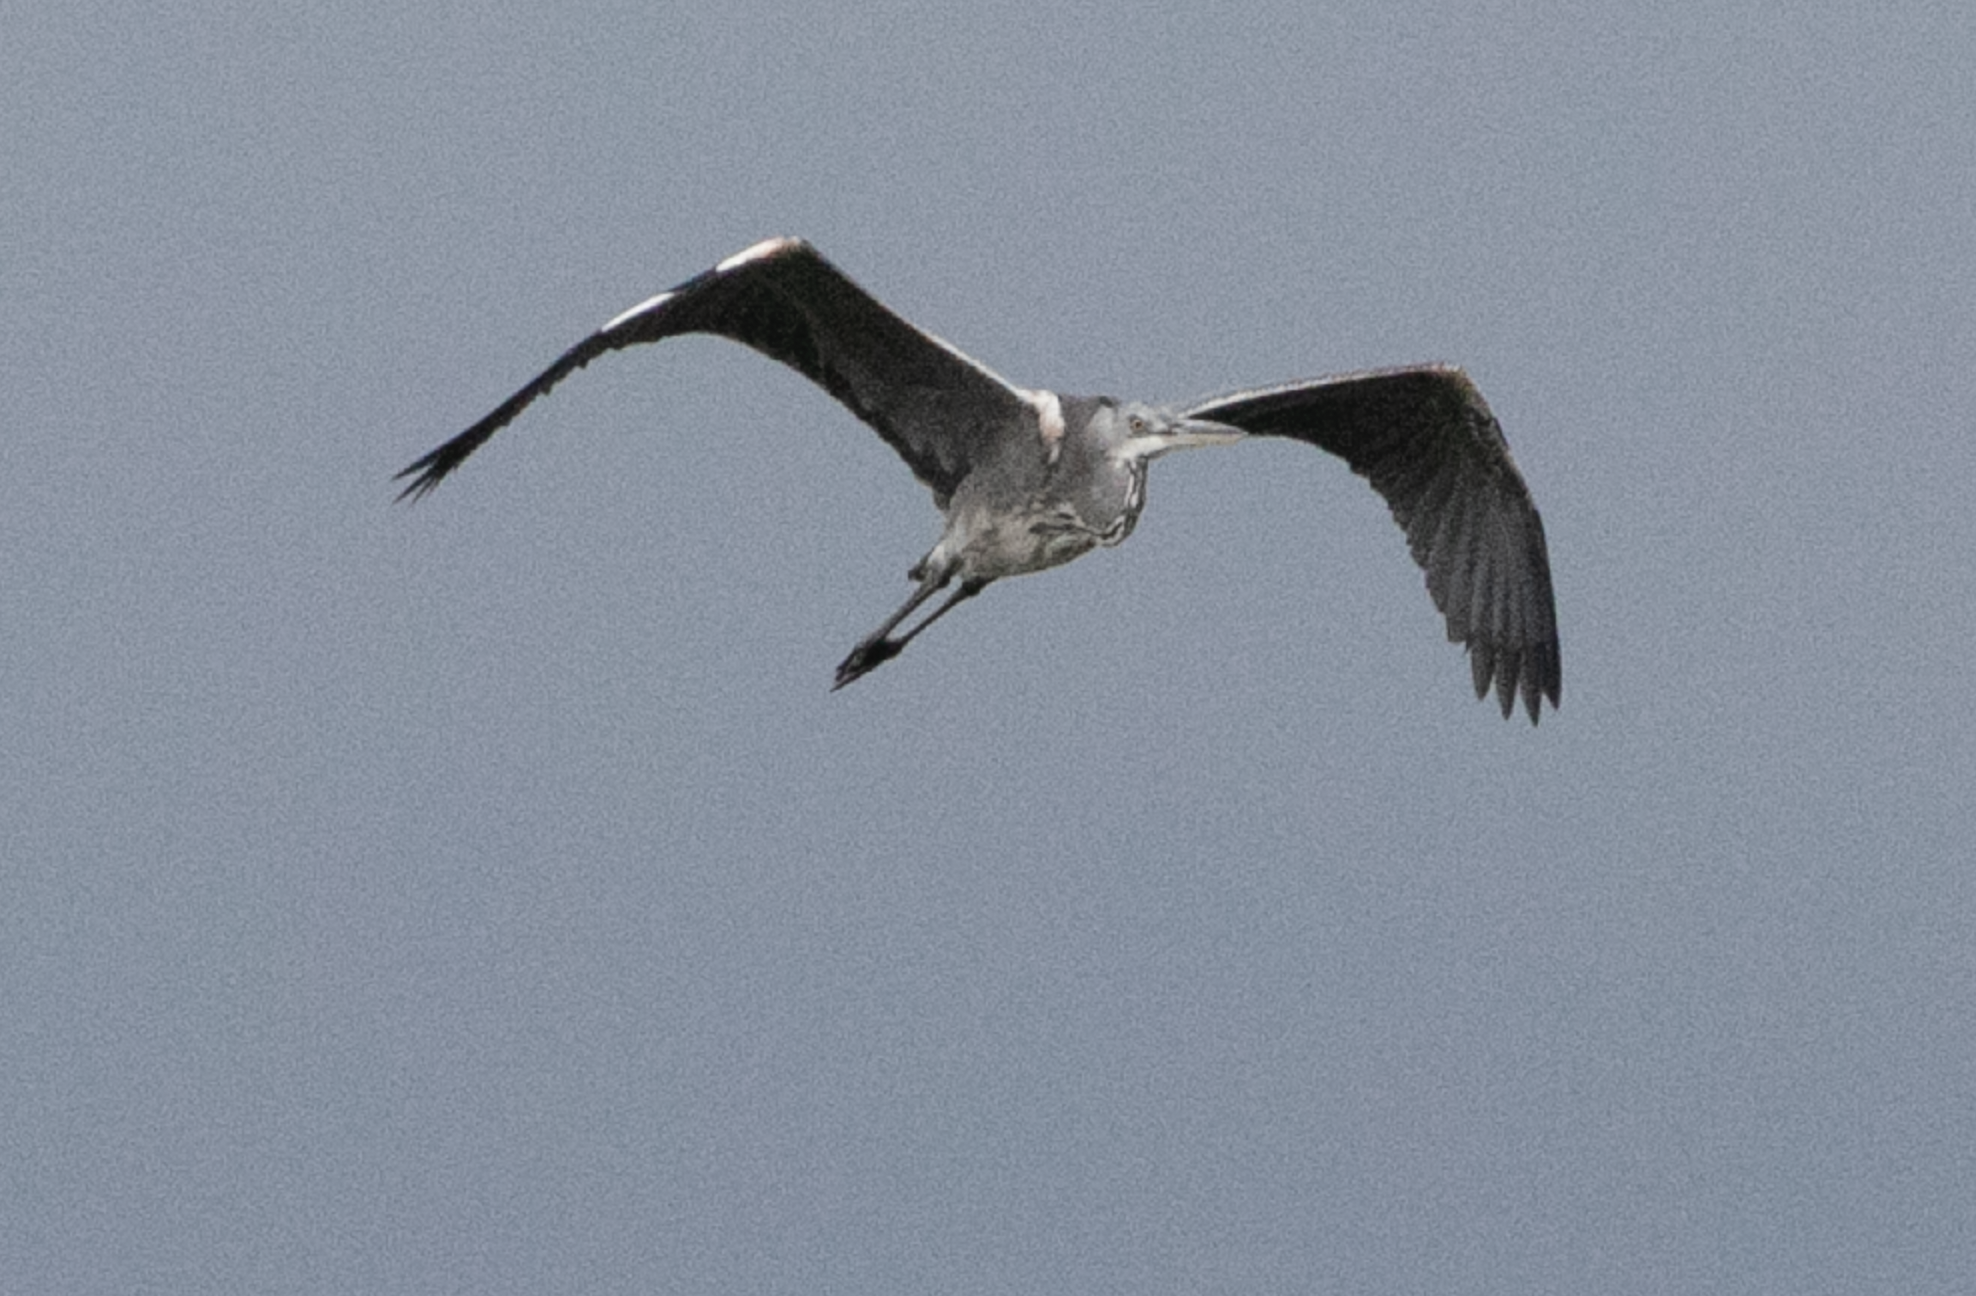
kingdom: Animalia
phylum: Chordata
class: Aves
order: Pelecaniformes
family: Ardeidae
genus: Ardea
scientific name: Ardea cinerea
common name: Grey heron
